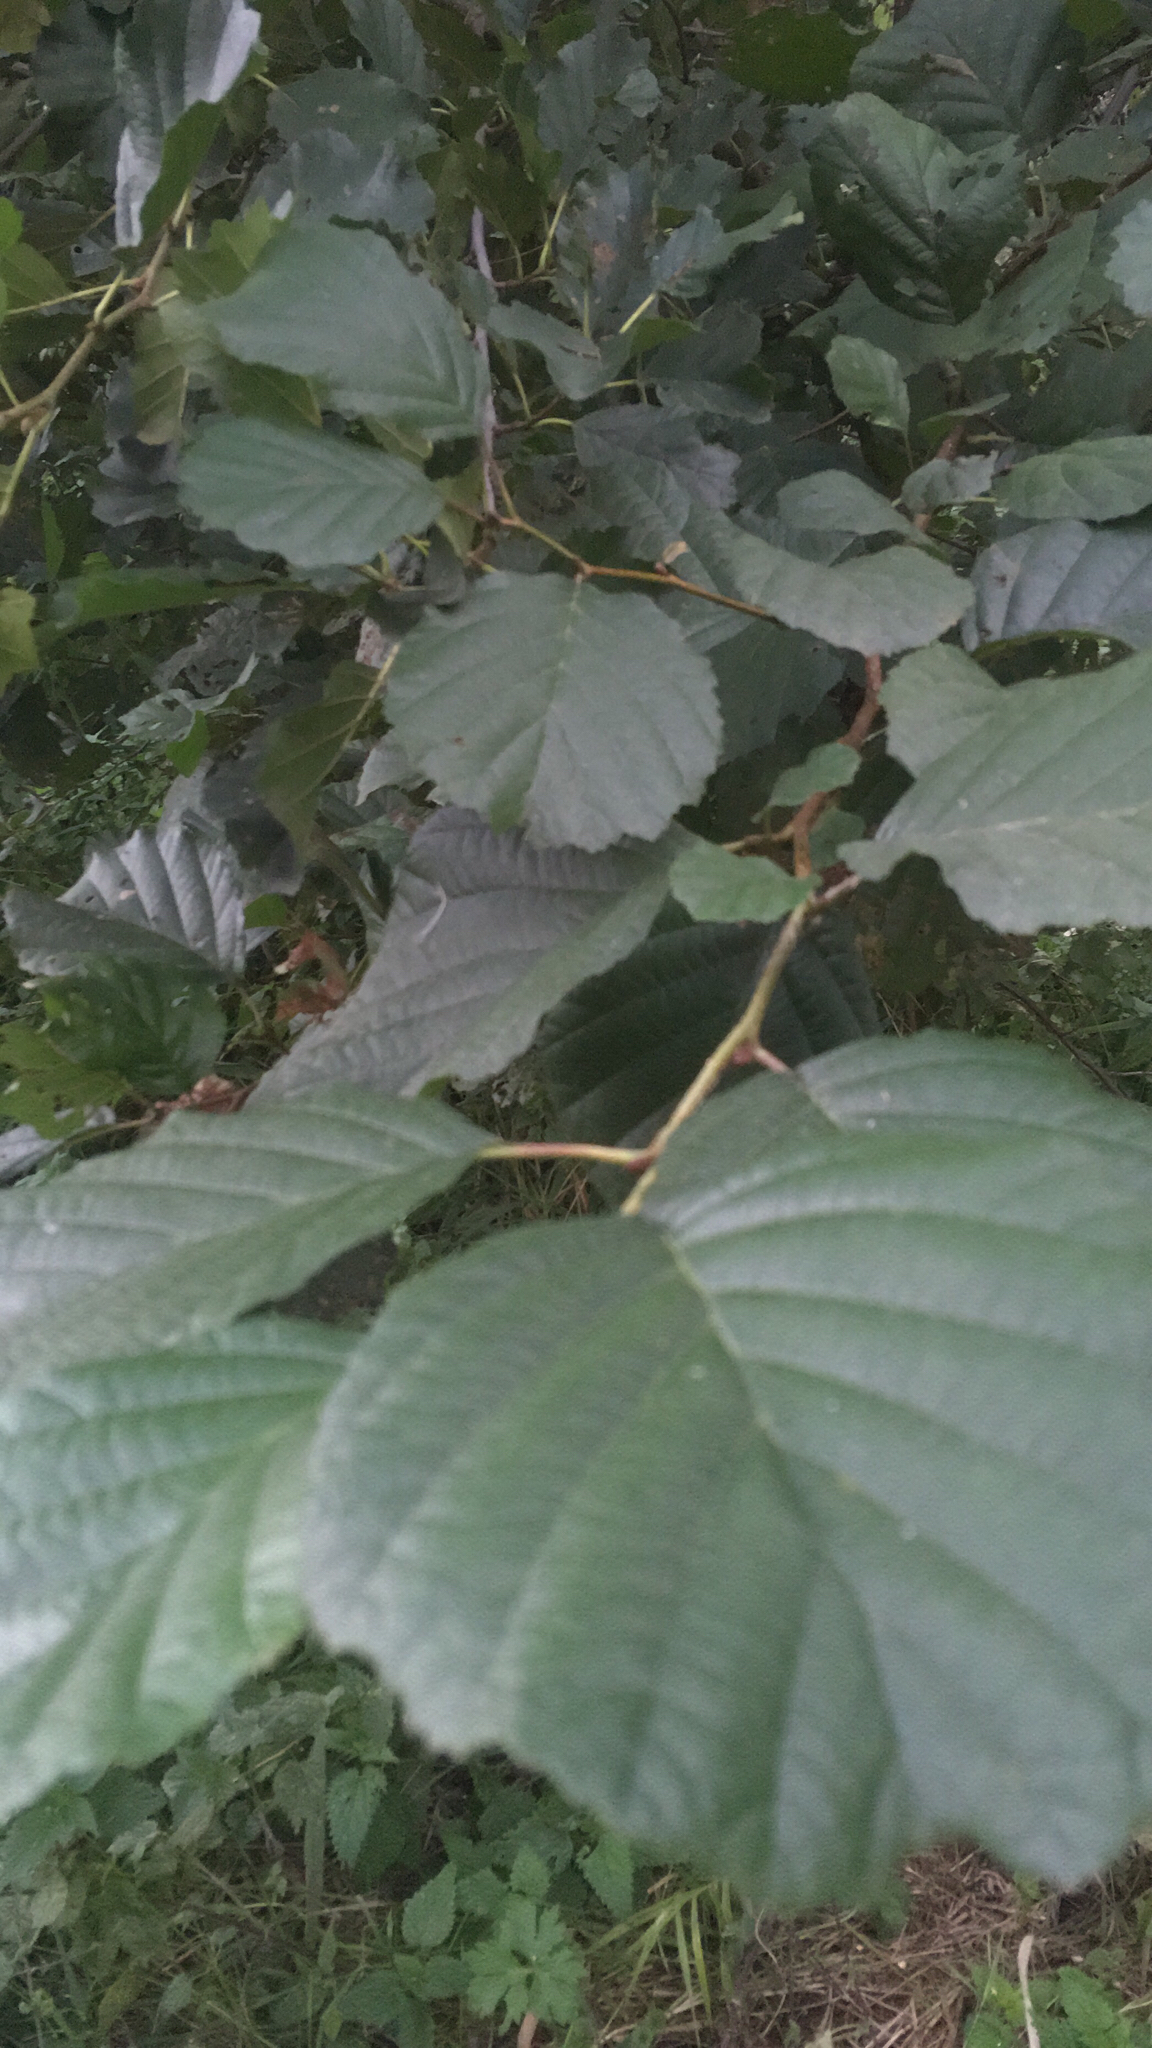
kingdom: Plantae
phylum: Tracheophyta
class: Magnoliopsida
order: Fagales
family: Betulaceae
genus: Alnus
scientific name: Alnus glutinosa
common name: Black alder
